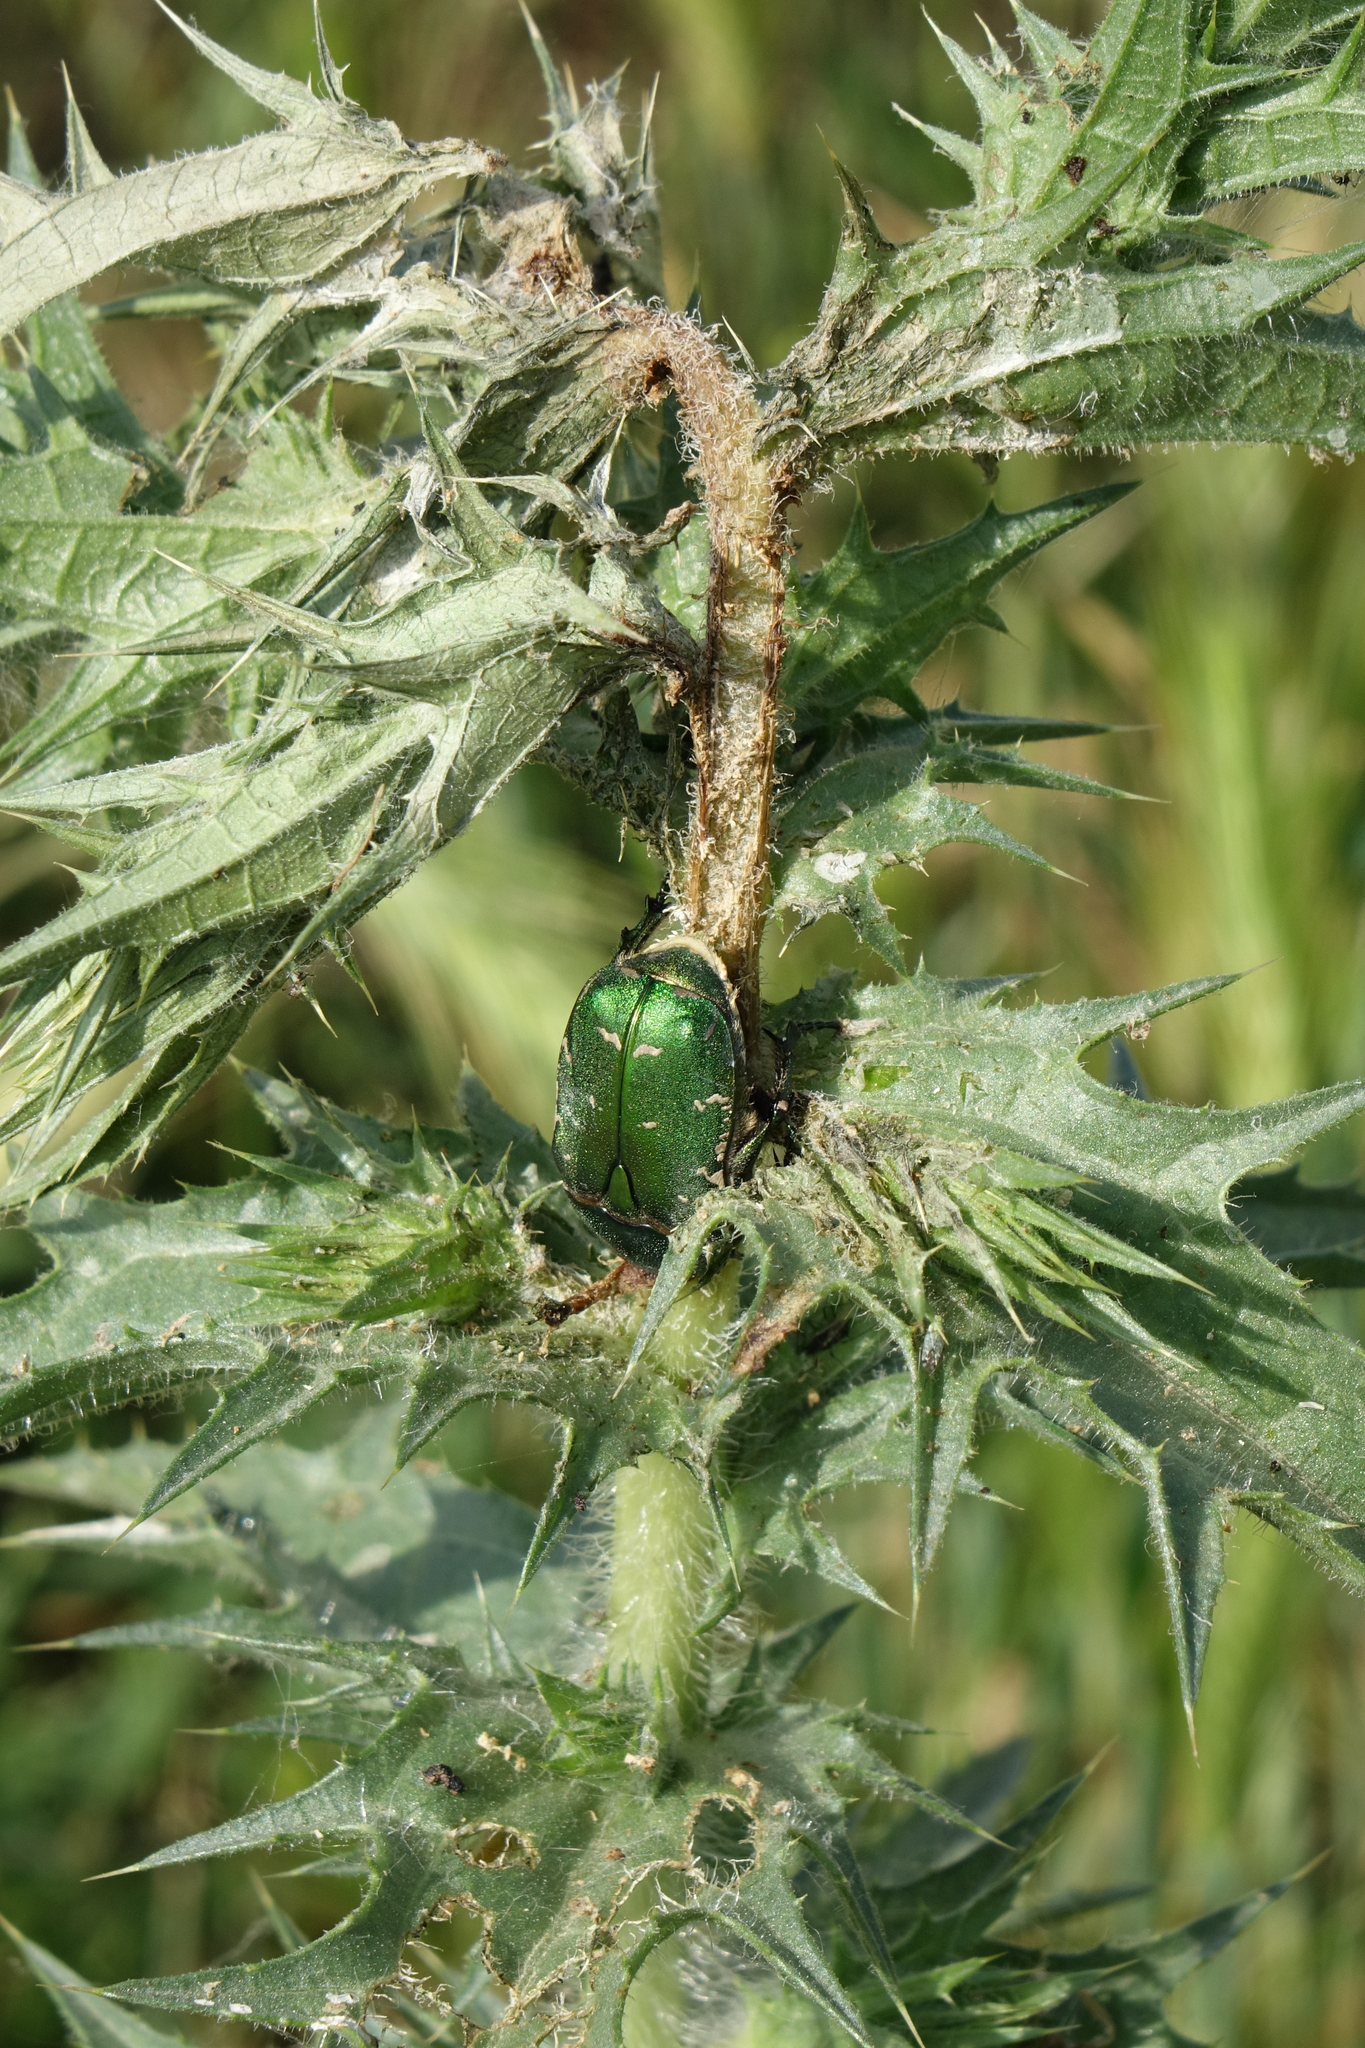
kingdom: Animalia
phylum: Arthropoda
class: Insecta
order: Coleoptera
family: Scarabaeidae
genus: Protaetia
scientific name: Protaetia ungarica
